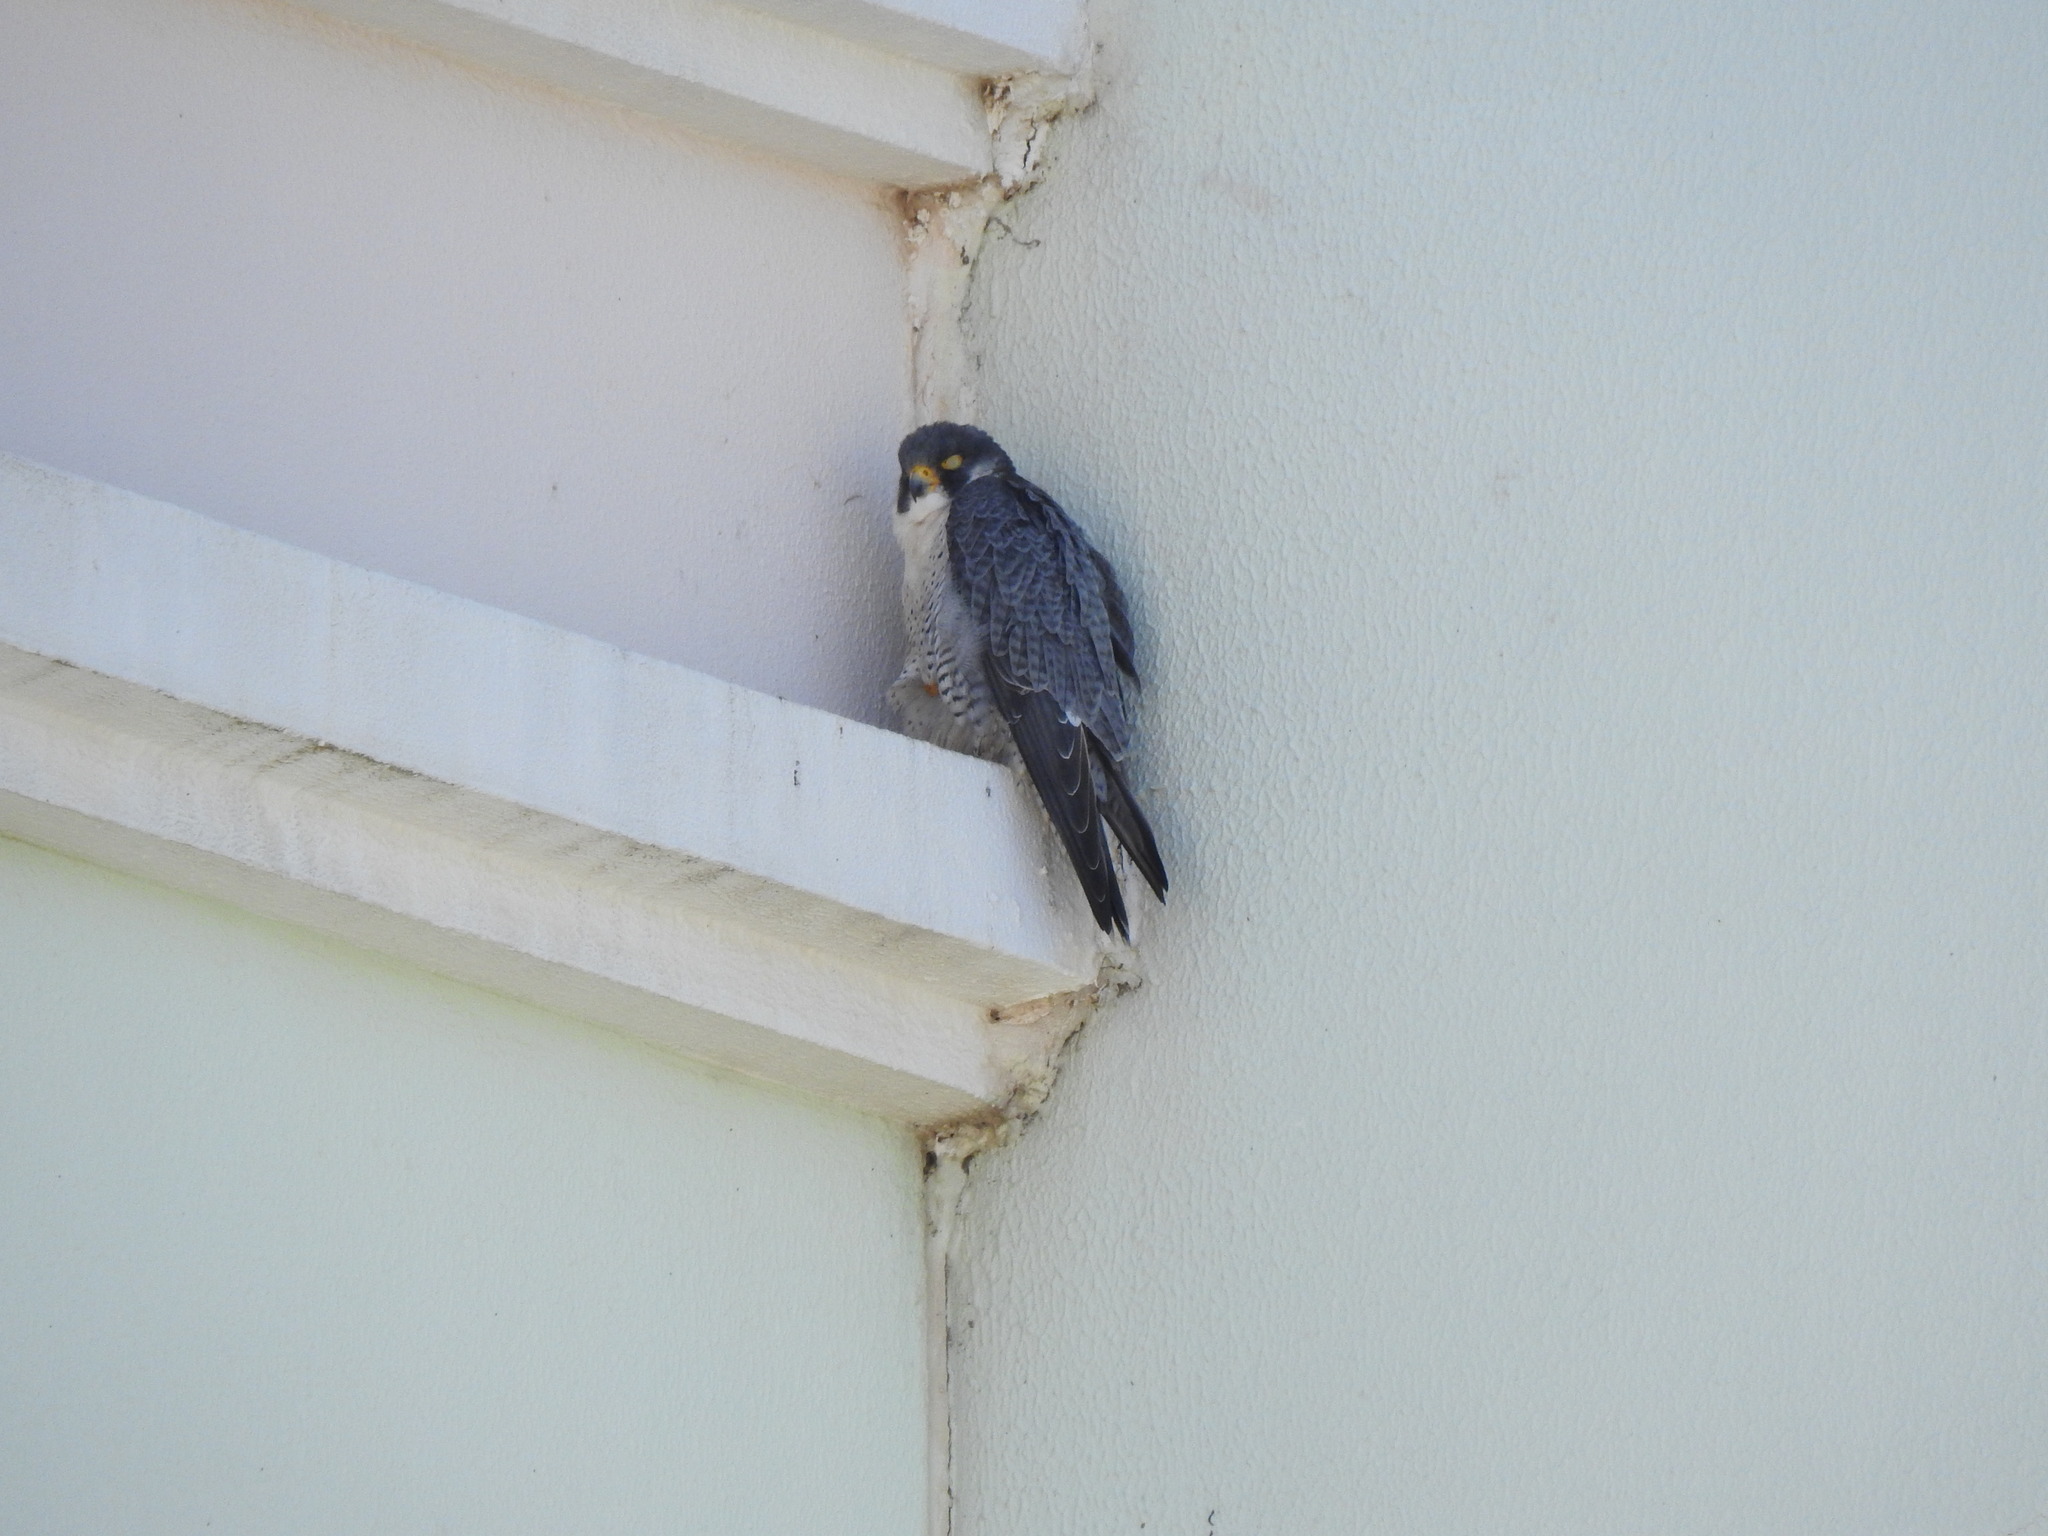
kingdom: Animalia
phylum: Chordata
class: Aves
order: Falconiformes
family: Falconidae
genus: Falco
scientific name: Falco peregrinus
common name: Peregrine falcon
